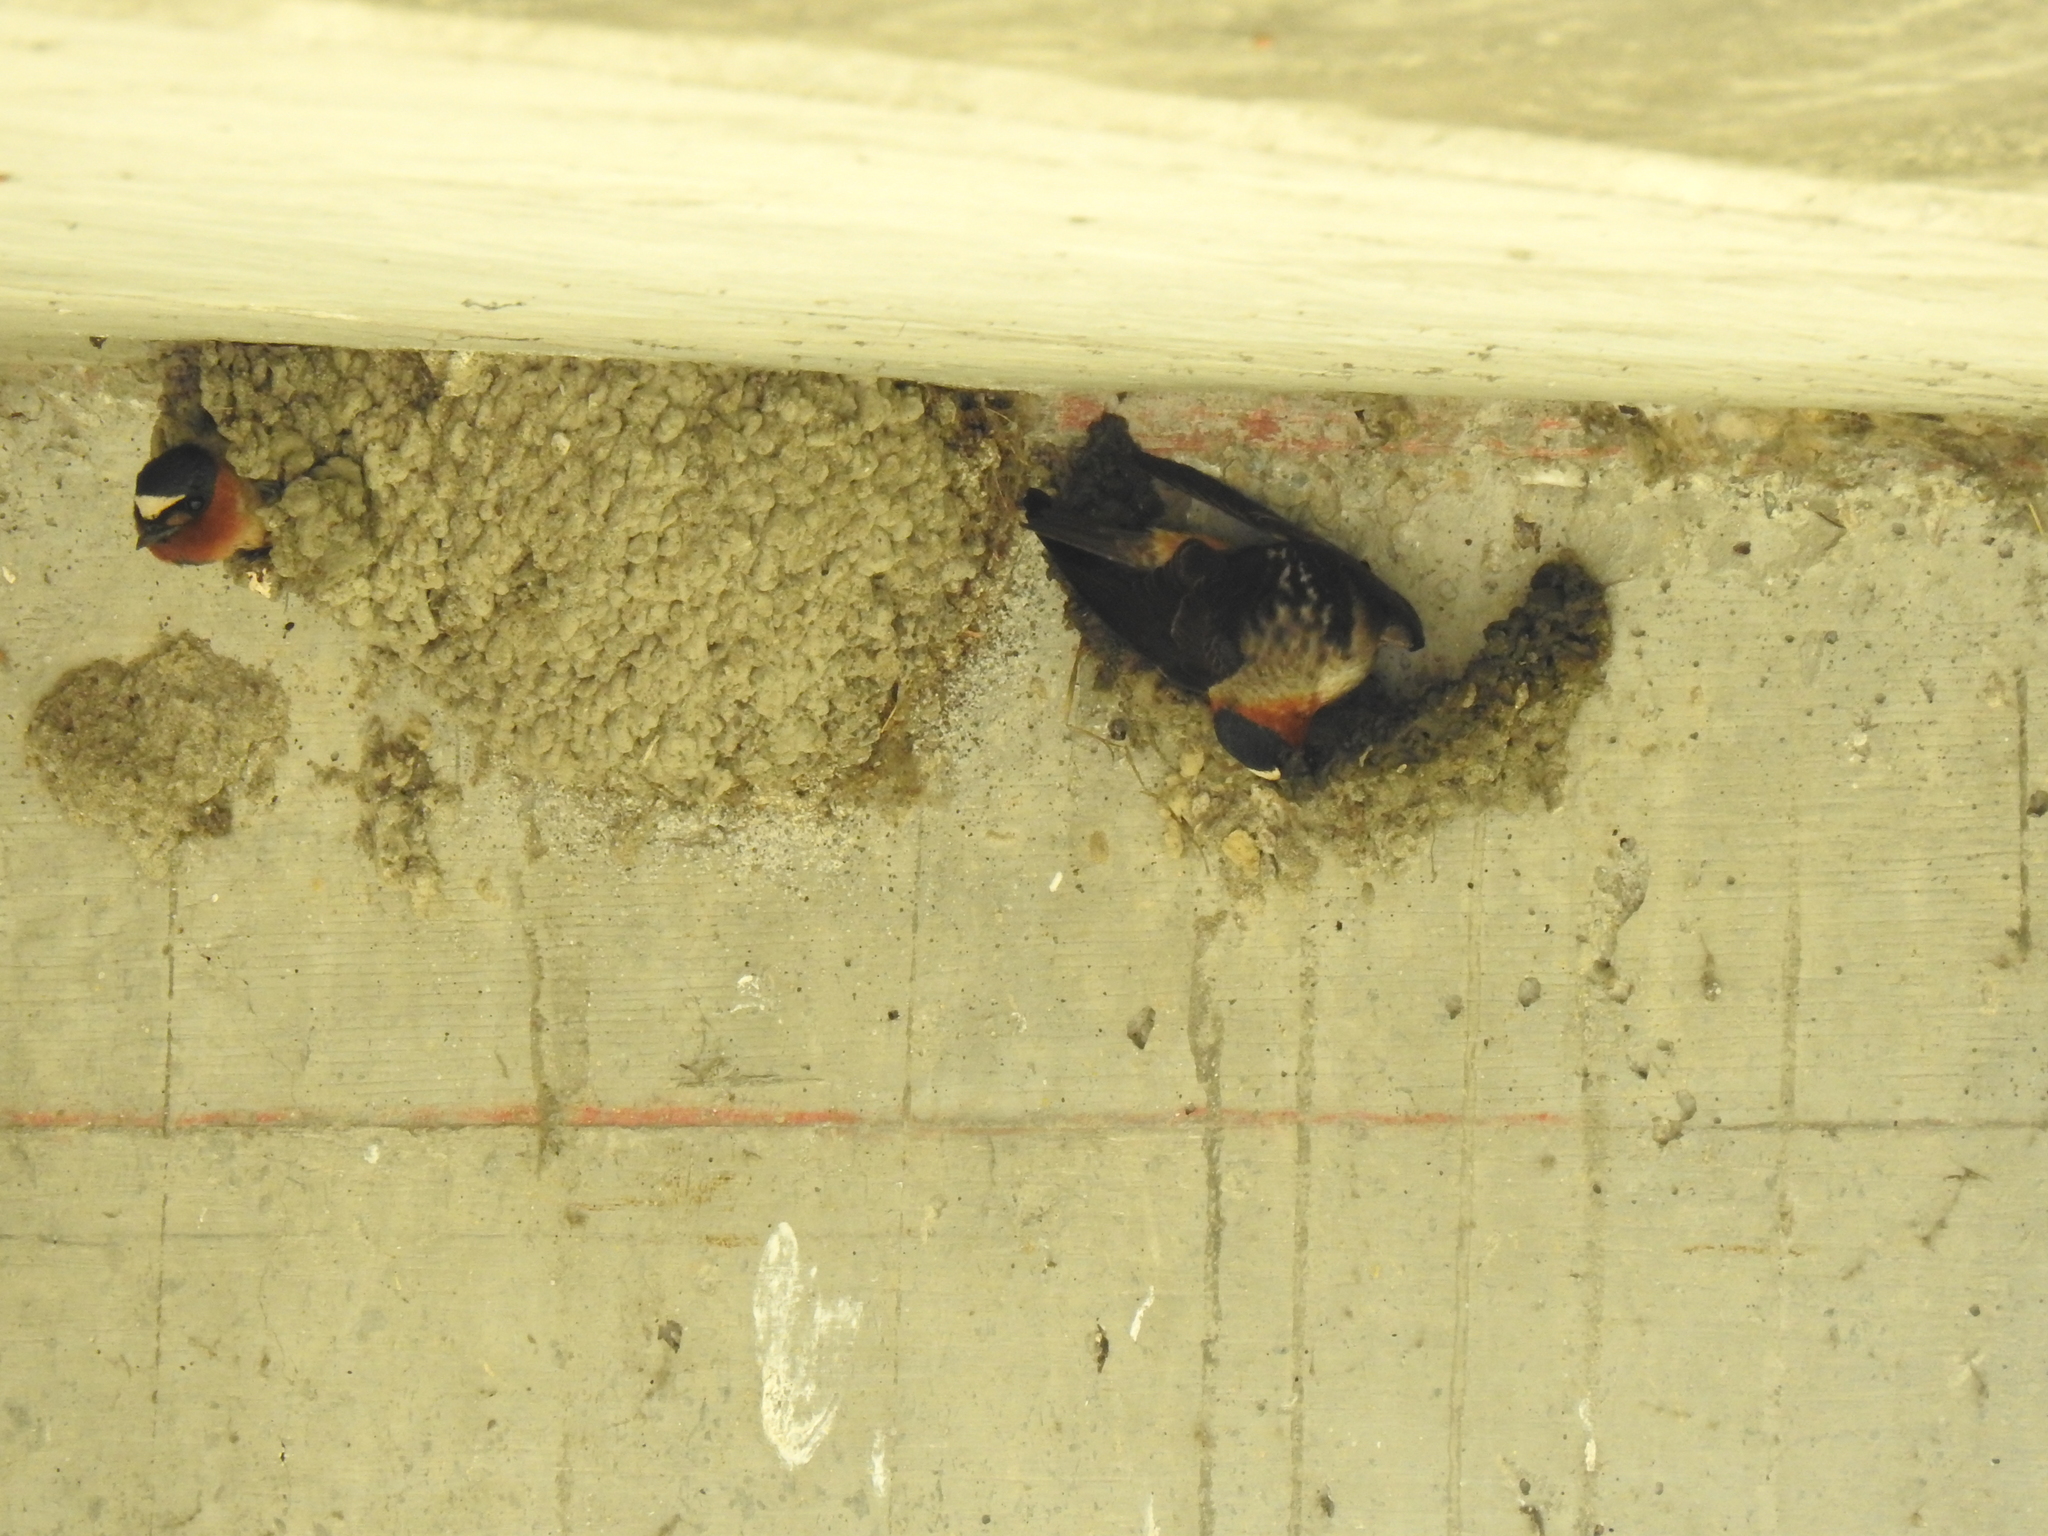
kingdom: Animalia
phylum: Chordata
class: Aves
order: Passeriformes
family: Hirundinidae
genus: Petrochelidon
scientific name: Petrochelidon pyrrhonota
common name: American cliff swallow
